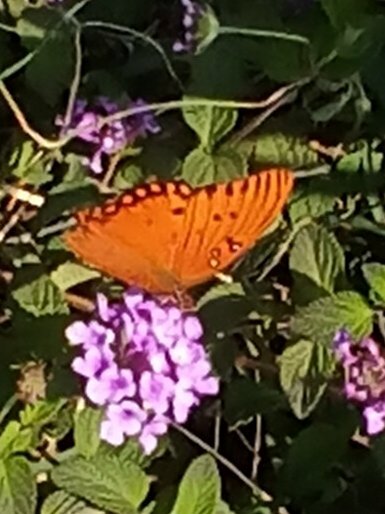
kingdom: Animalia
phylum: Arthropoda
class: Insecta
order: Lepidoptera
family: Nymphalidae
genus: Dione
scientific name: Dione vanillae
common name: Gulf fritillary
